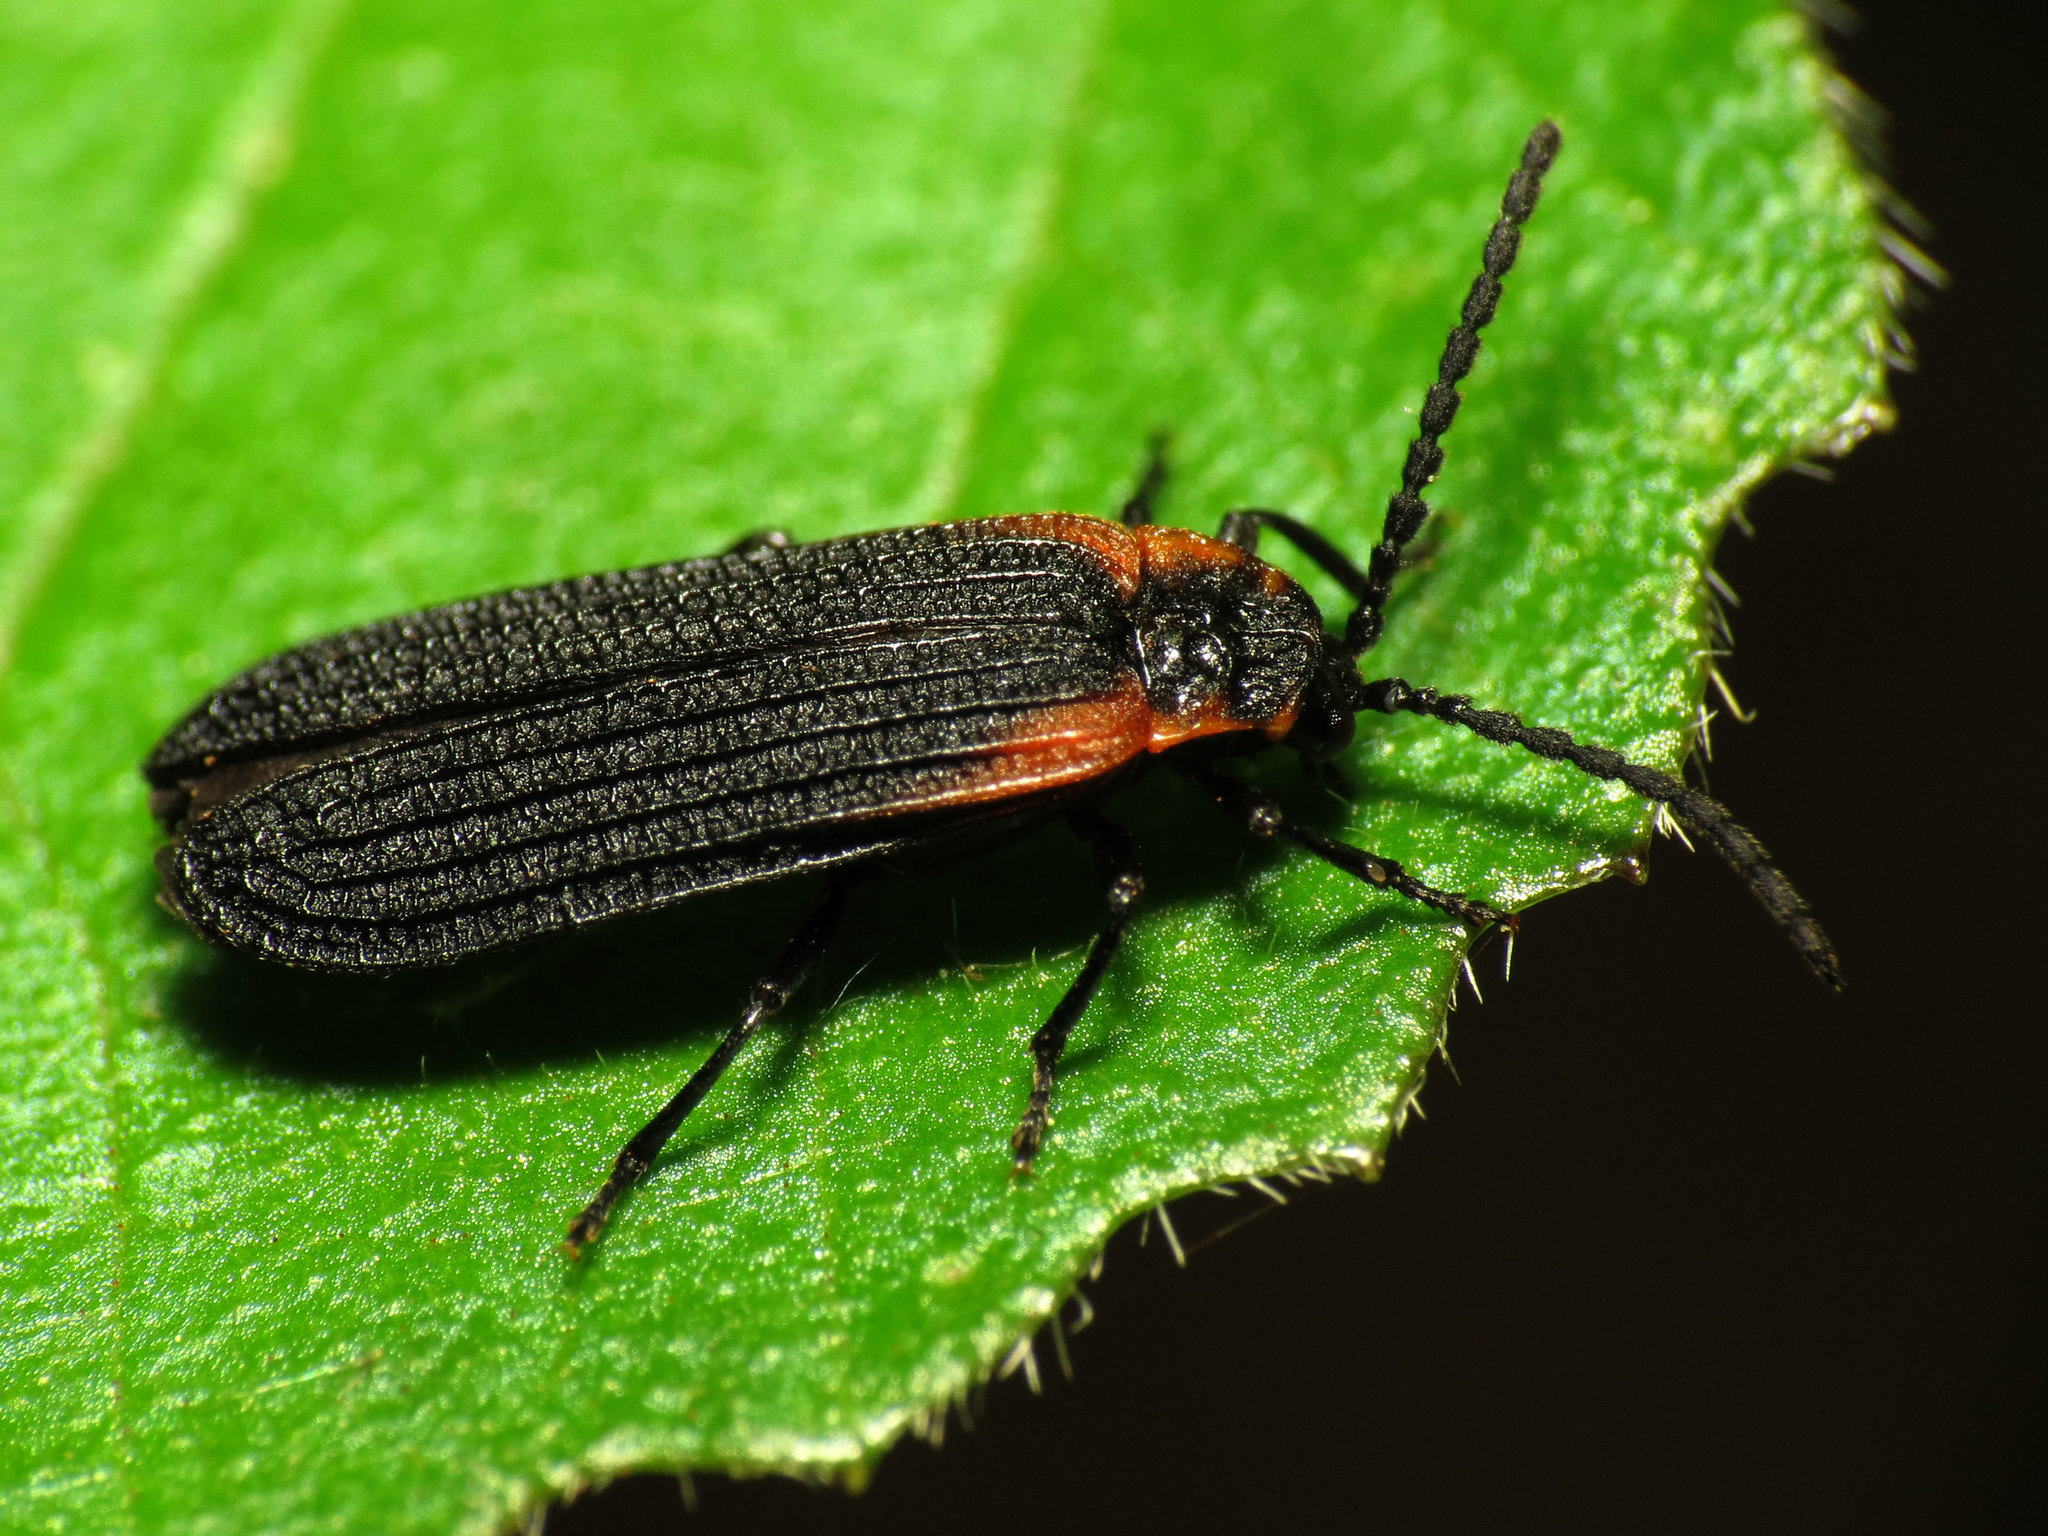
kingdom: Animalia
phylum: Arthropoda
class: Insecta
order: Coleoptera
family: Lycidae
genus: Eros
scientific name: Eros humeralis
